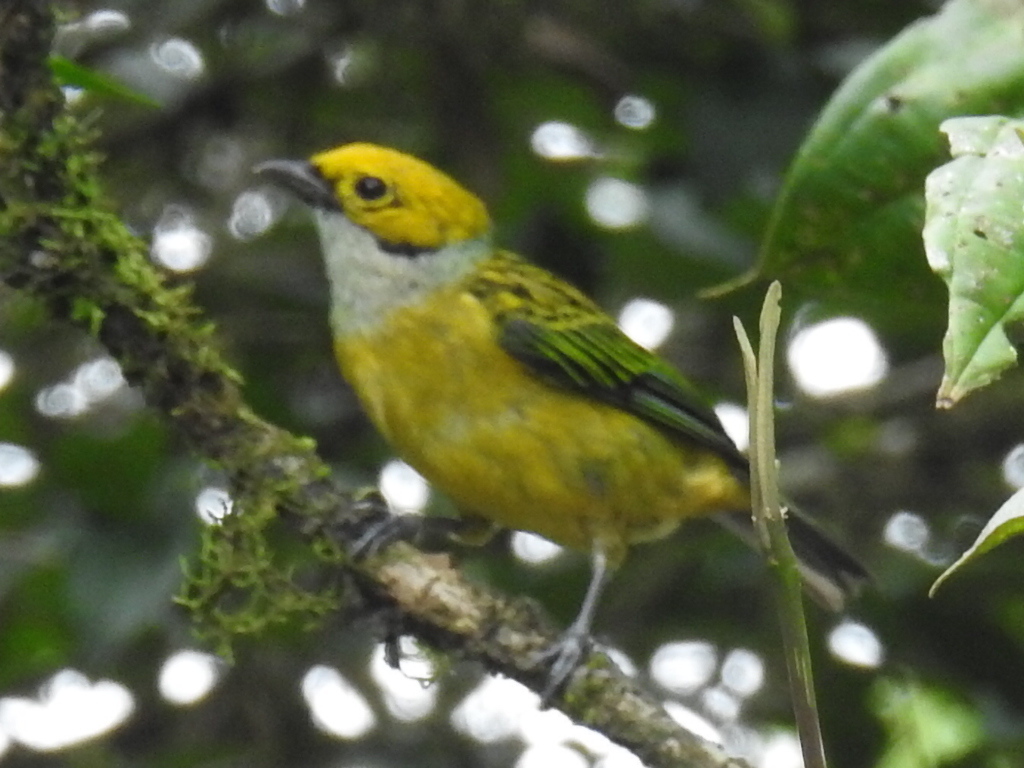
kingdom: Animalia
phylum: Chordata
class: Aves
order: Passeriformes
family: Thraupidae
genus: Tangara
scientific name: Tangara icterocephala
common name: Silver-throated tanager
